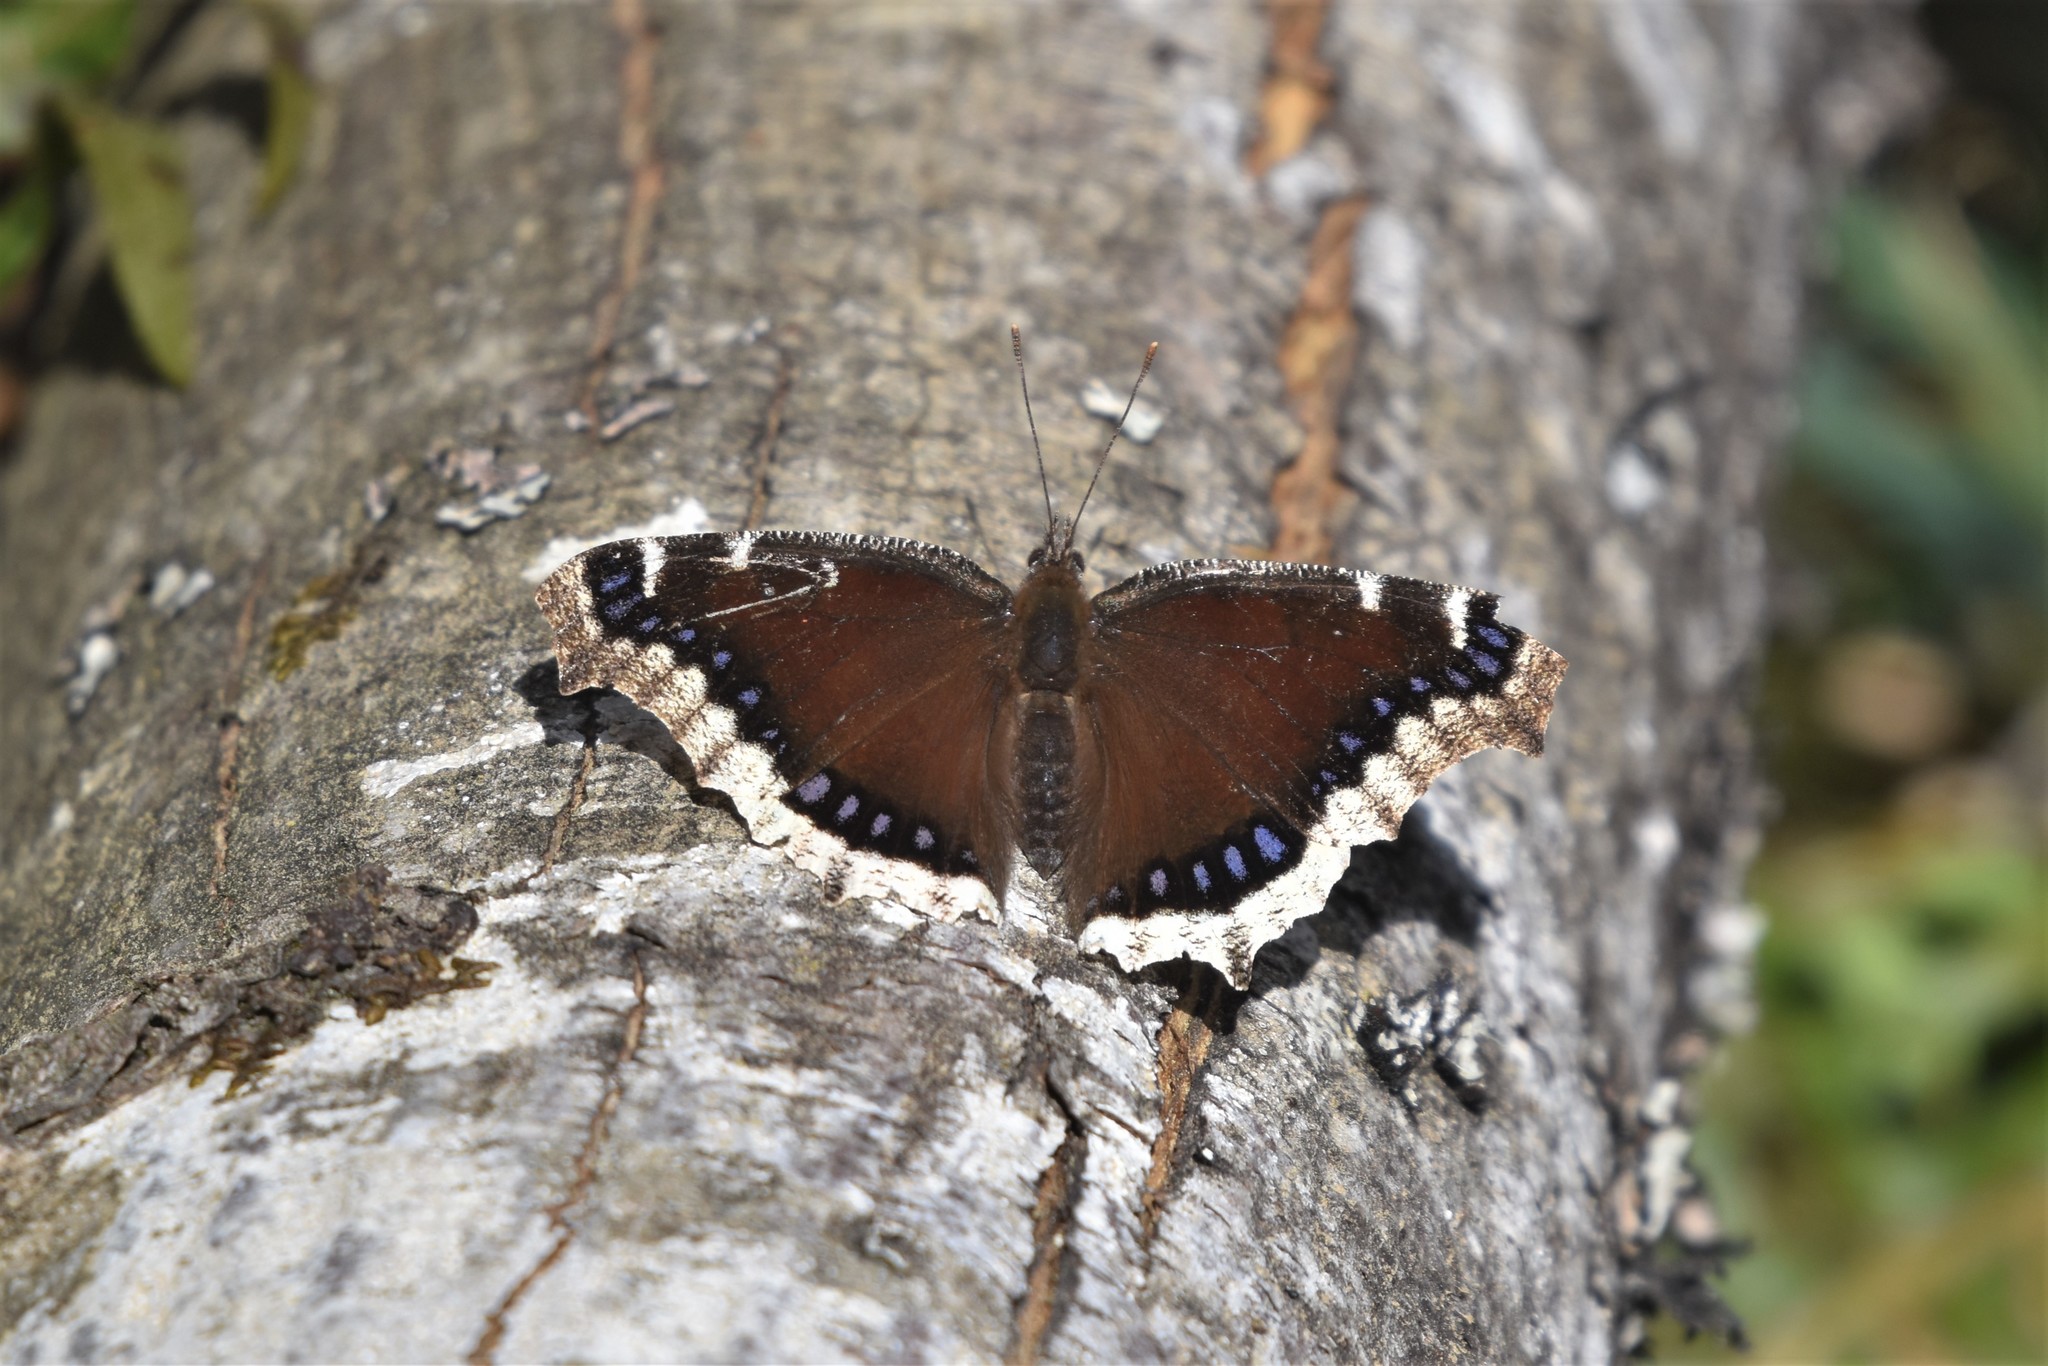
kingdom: Animalia
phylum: Arthropoda
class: Insecta
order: Lepidoptera
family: Nymphalidae
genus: Nymphalis
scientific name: Nymphalis antiopa
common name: Camberwell beauty
